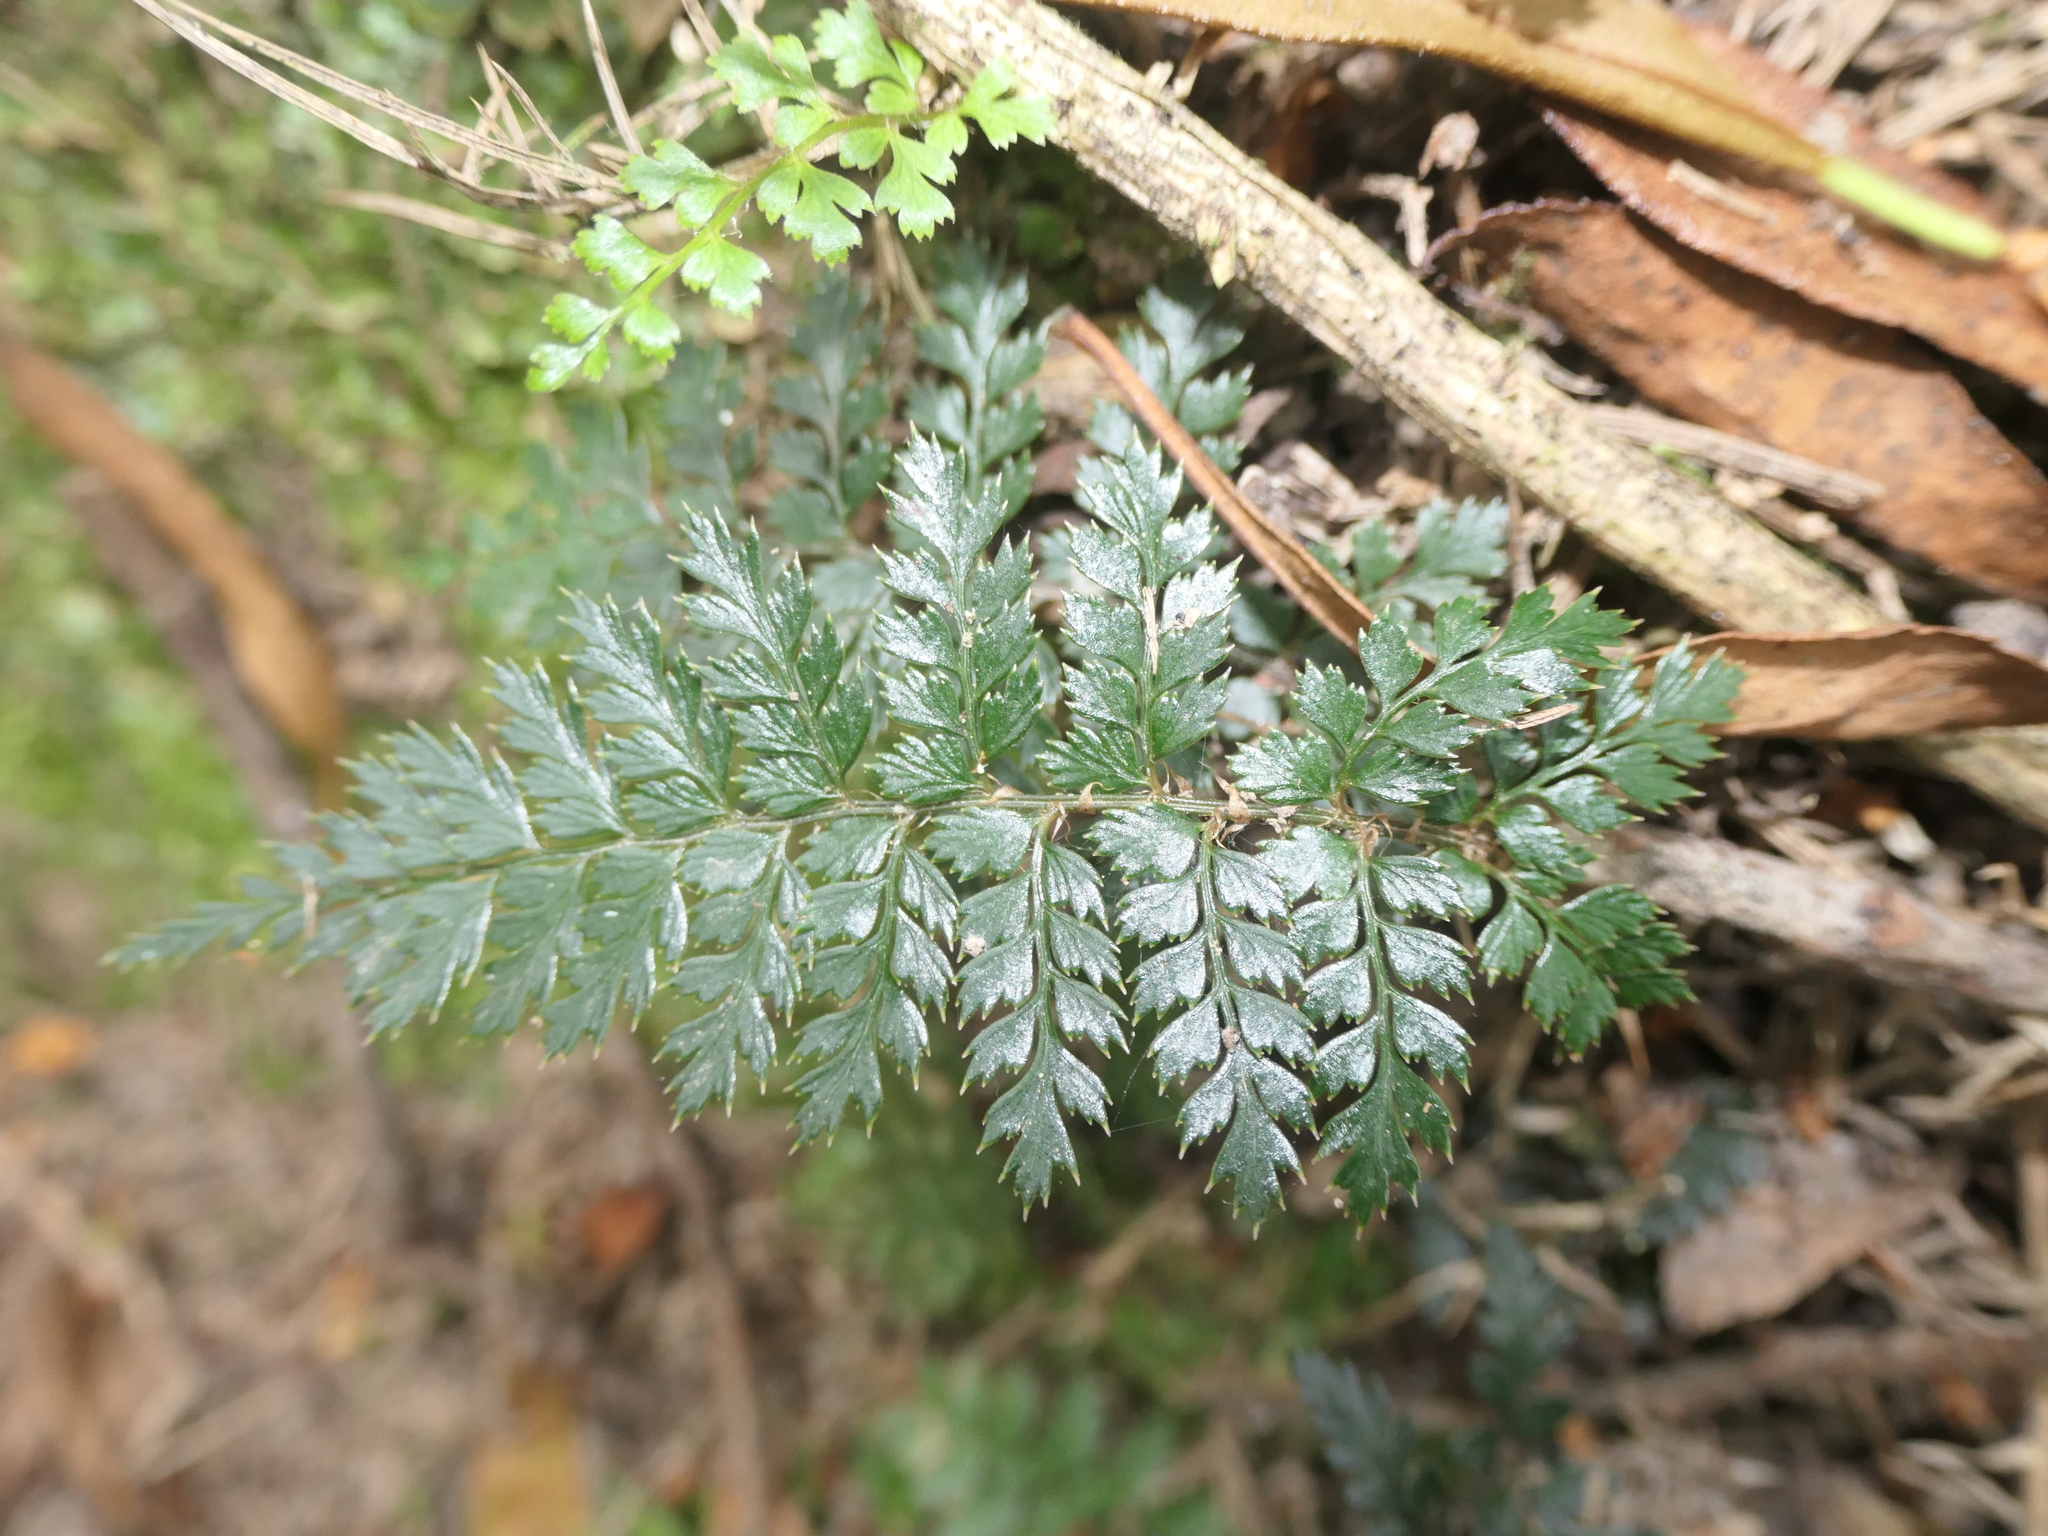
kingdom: Plantae
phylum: Tracheophyta
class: Polypodiopsida
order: Polypodiales
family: Dryopteridaceae
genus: Polystichum
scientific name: Polystichum vestitum
